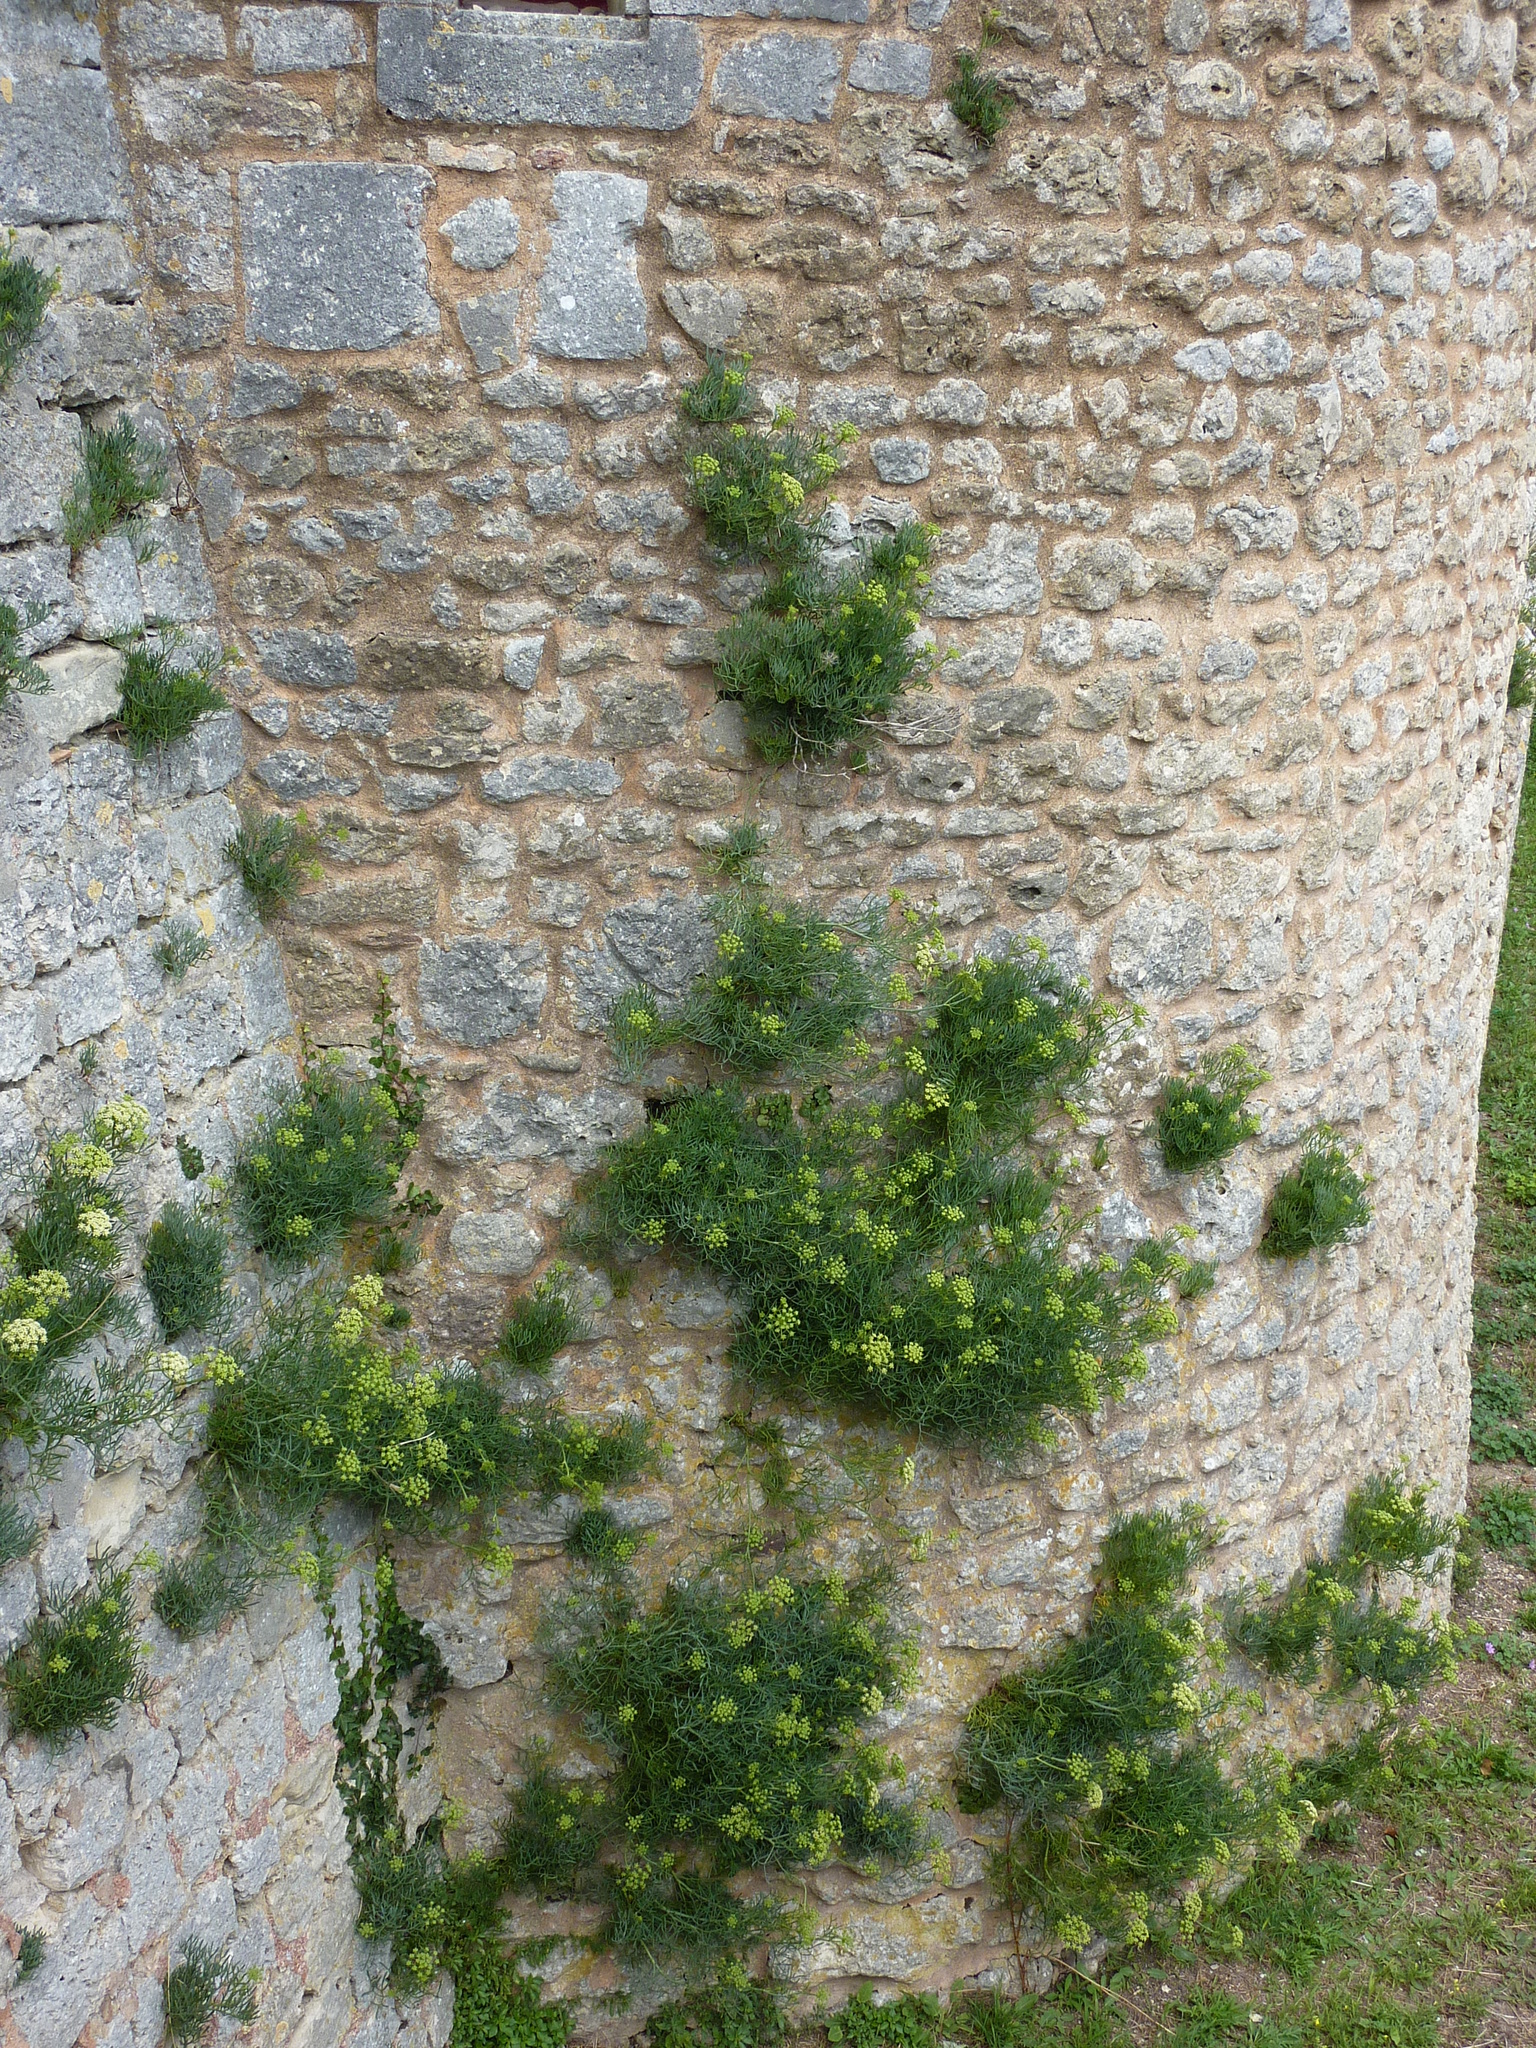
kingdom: Plantae
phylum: Tracheophyta
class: Magnoliopsida
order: Apiales
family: Apiaceae
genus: Crithmum
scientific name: Crithmum maritimum
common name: Rock samphire
